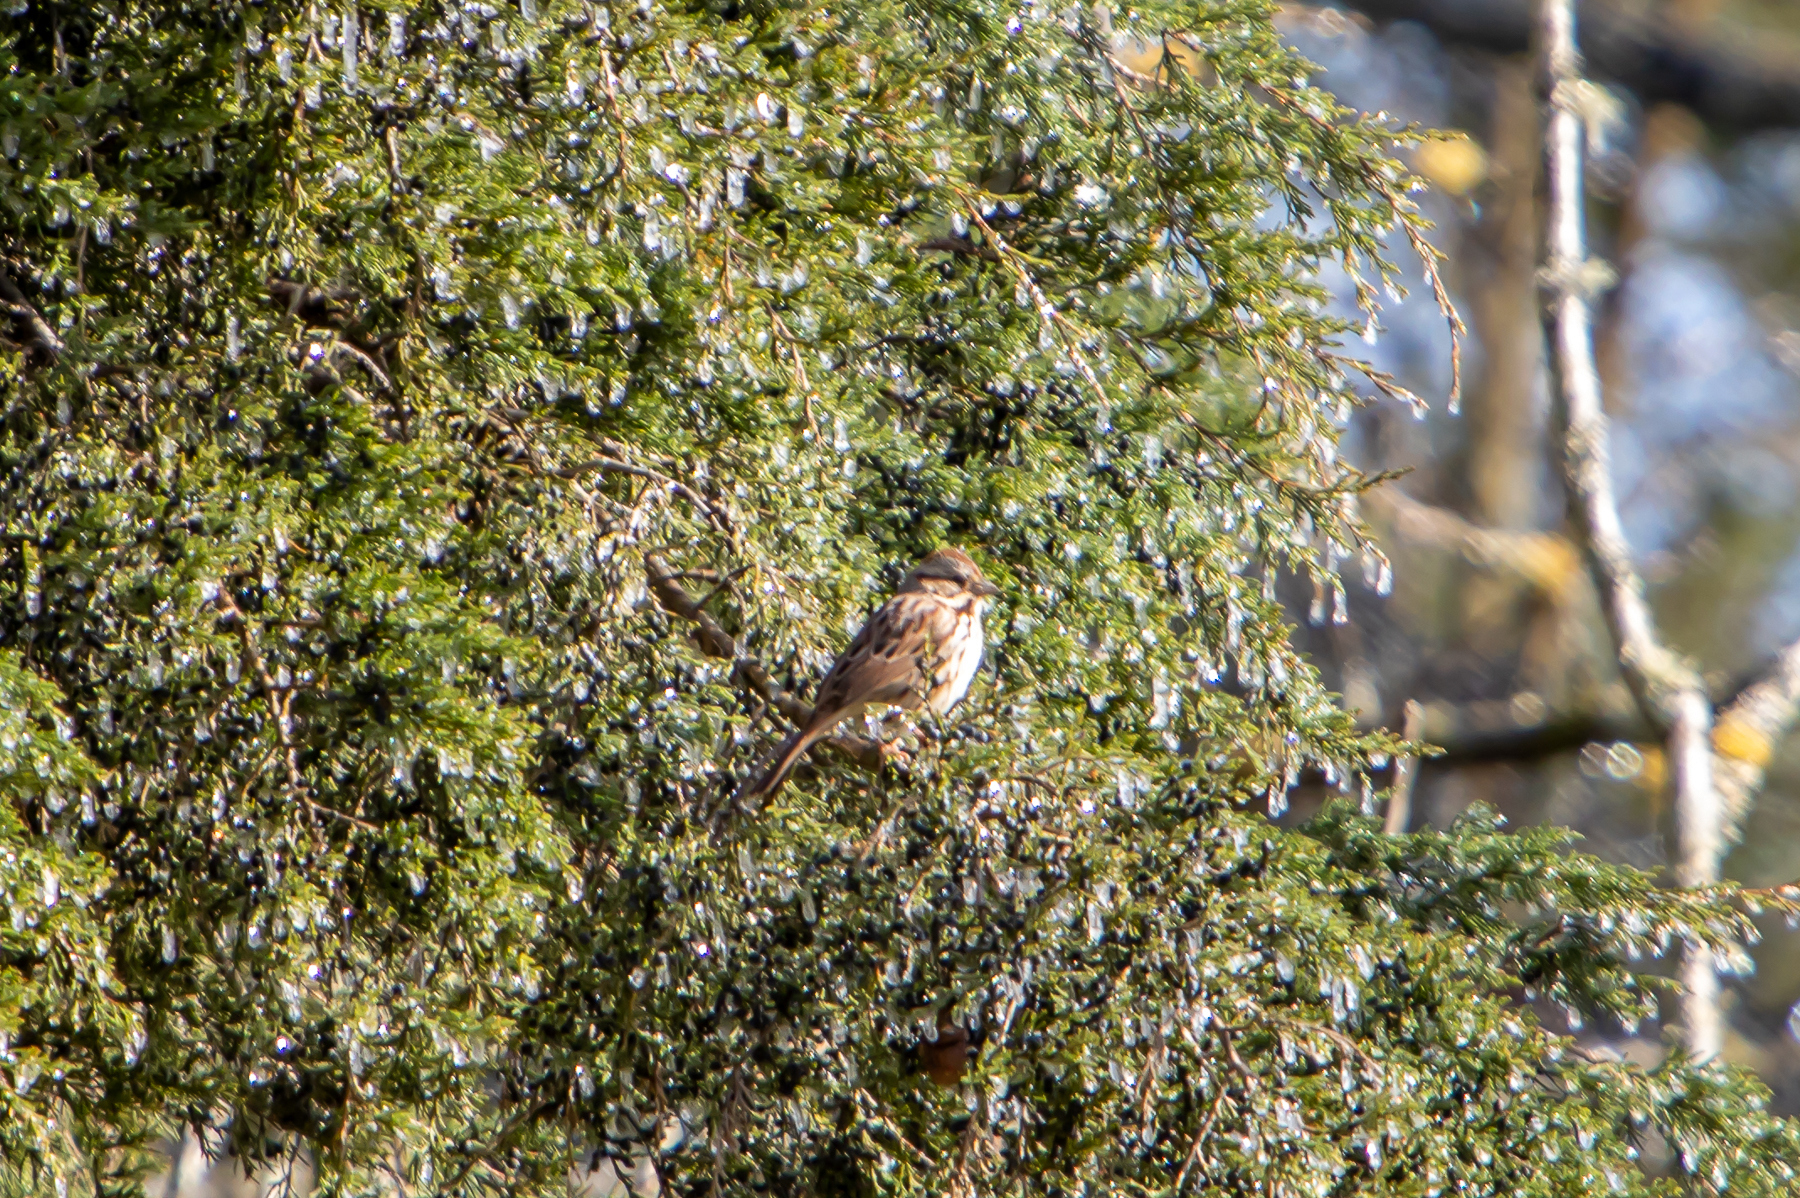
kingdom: Animalia
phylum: Chordata
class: Aves
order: Passeriformes
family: Passerellidae
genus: Melospiza
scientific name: Melospiza melodia
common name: Song sparrow
